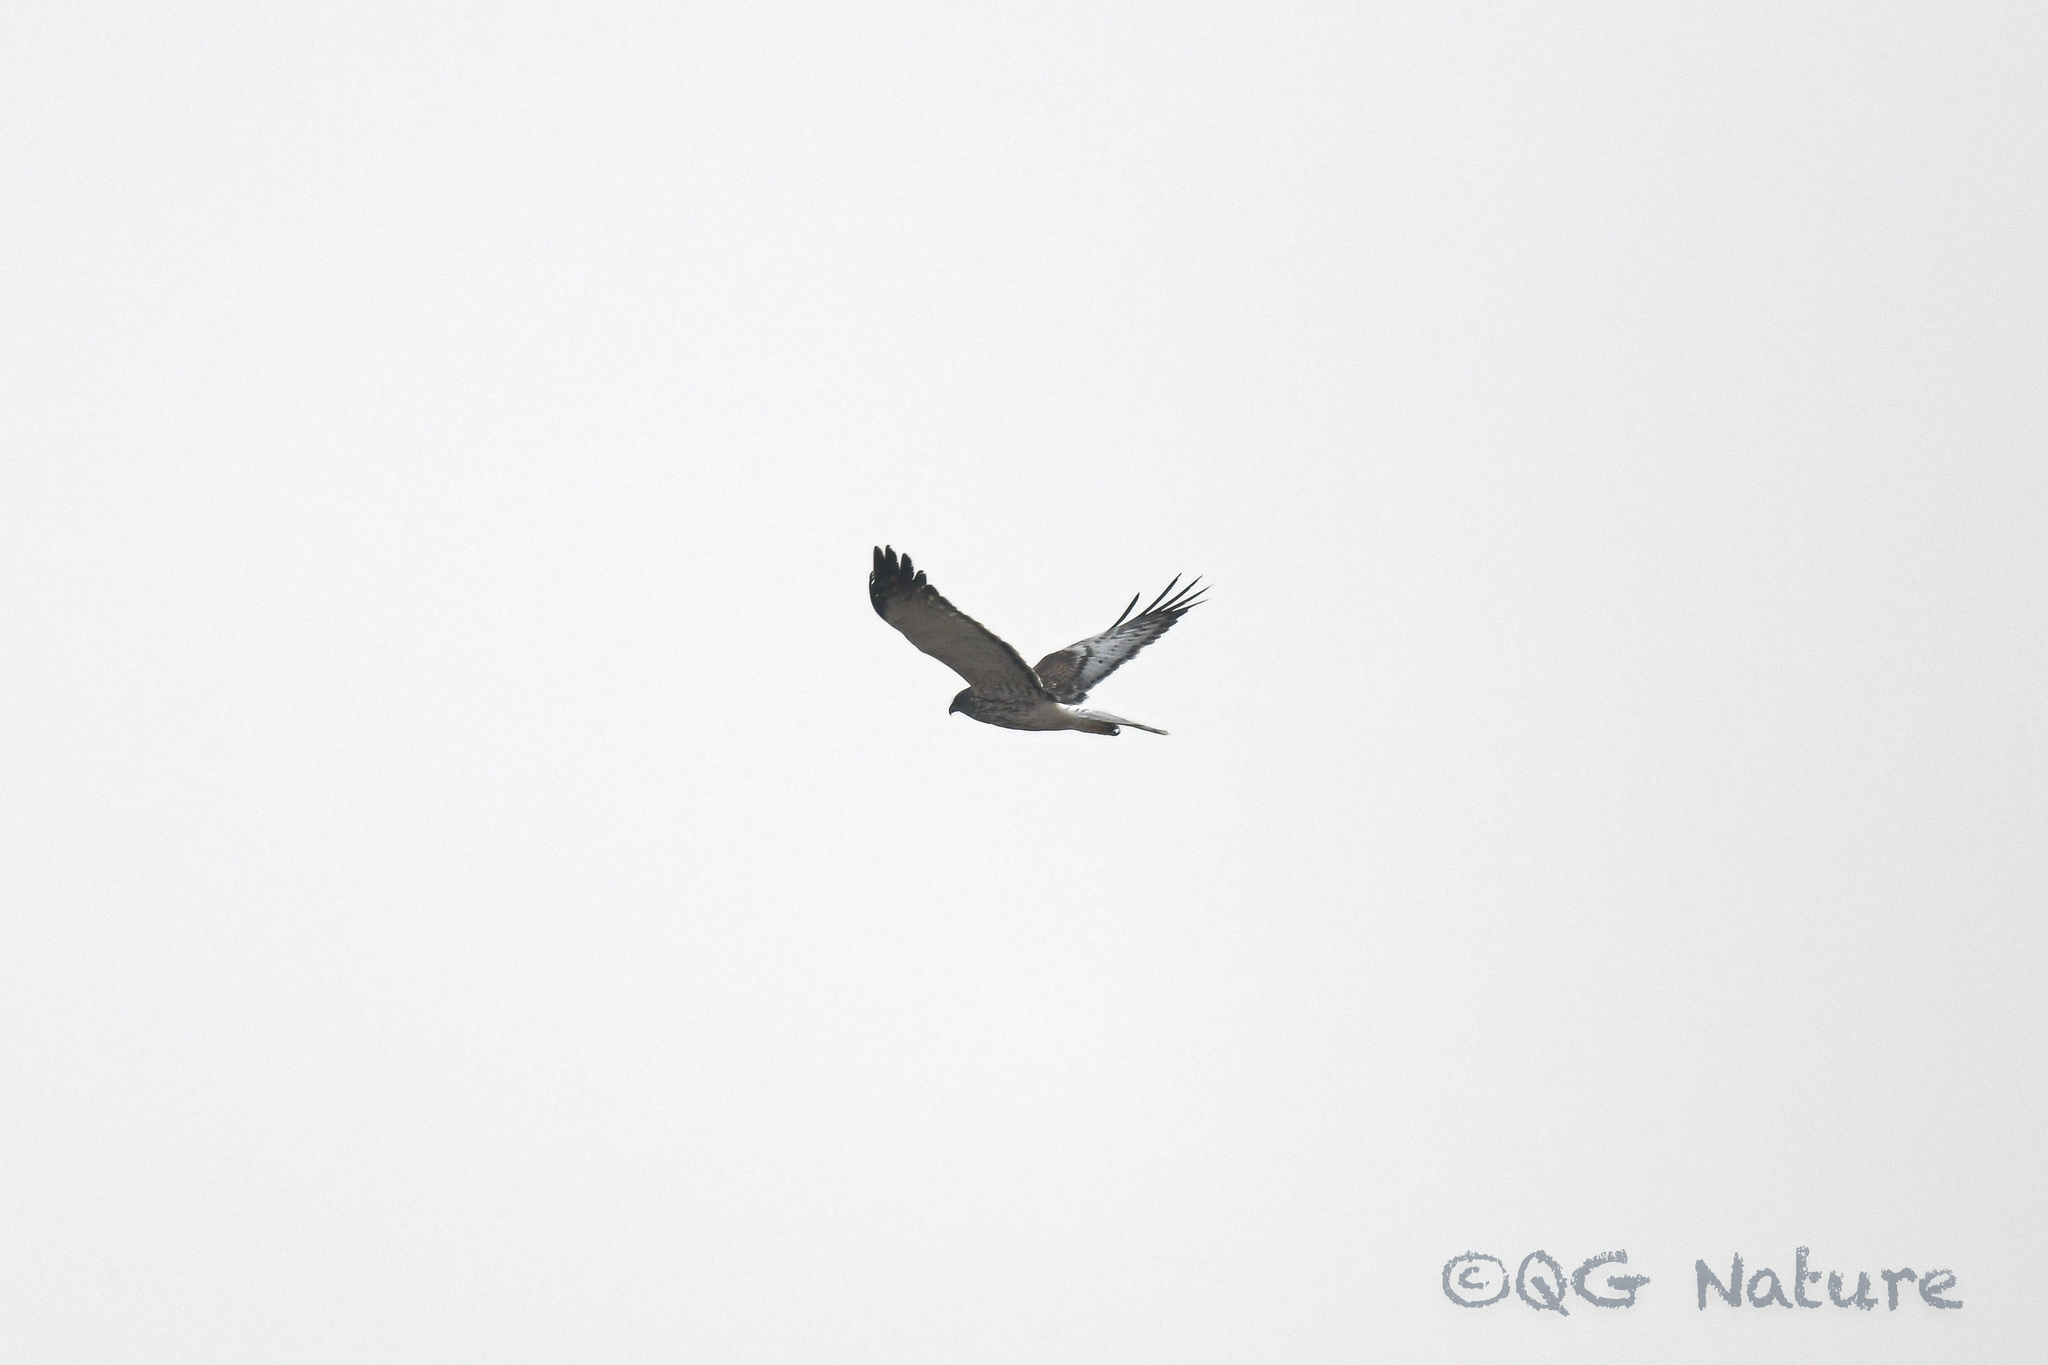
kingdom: Animalia
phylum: Chordata
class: Aves
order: Accipitriformes
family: Accipitridae
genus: Circus
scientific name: Circus cyaneus
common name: Hen harrier
